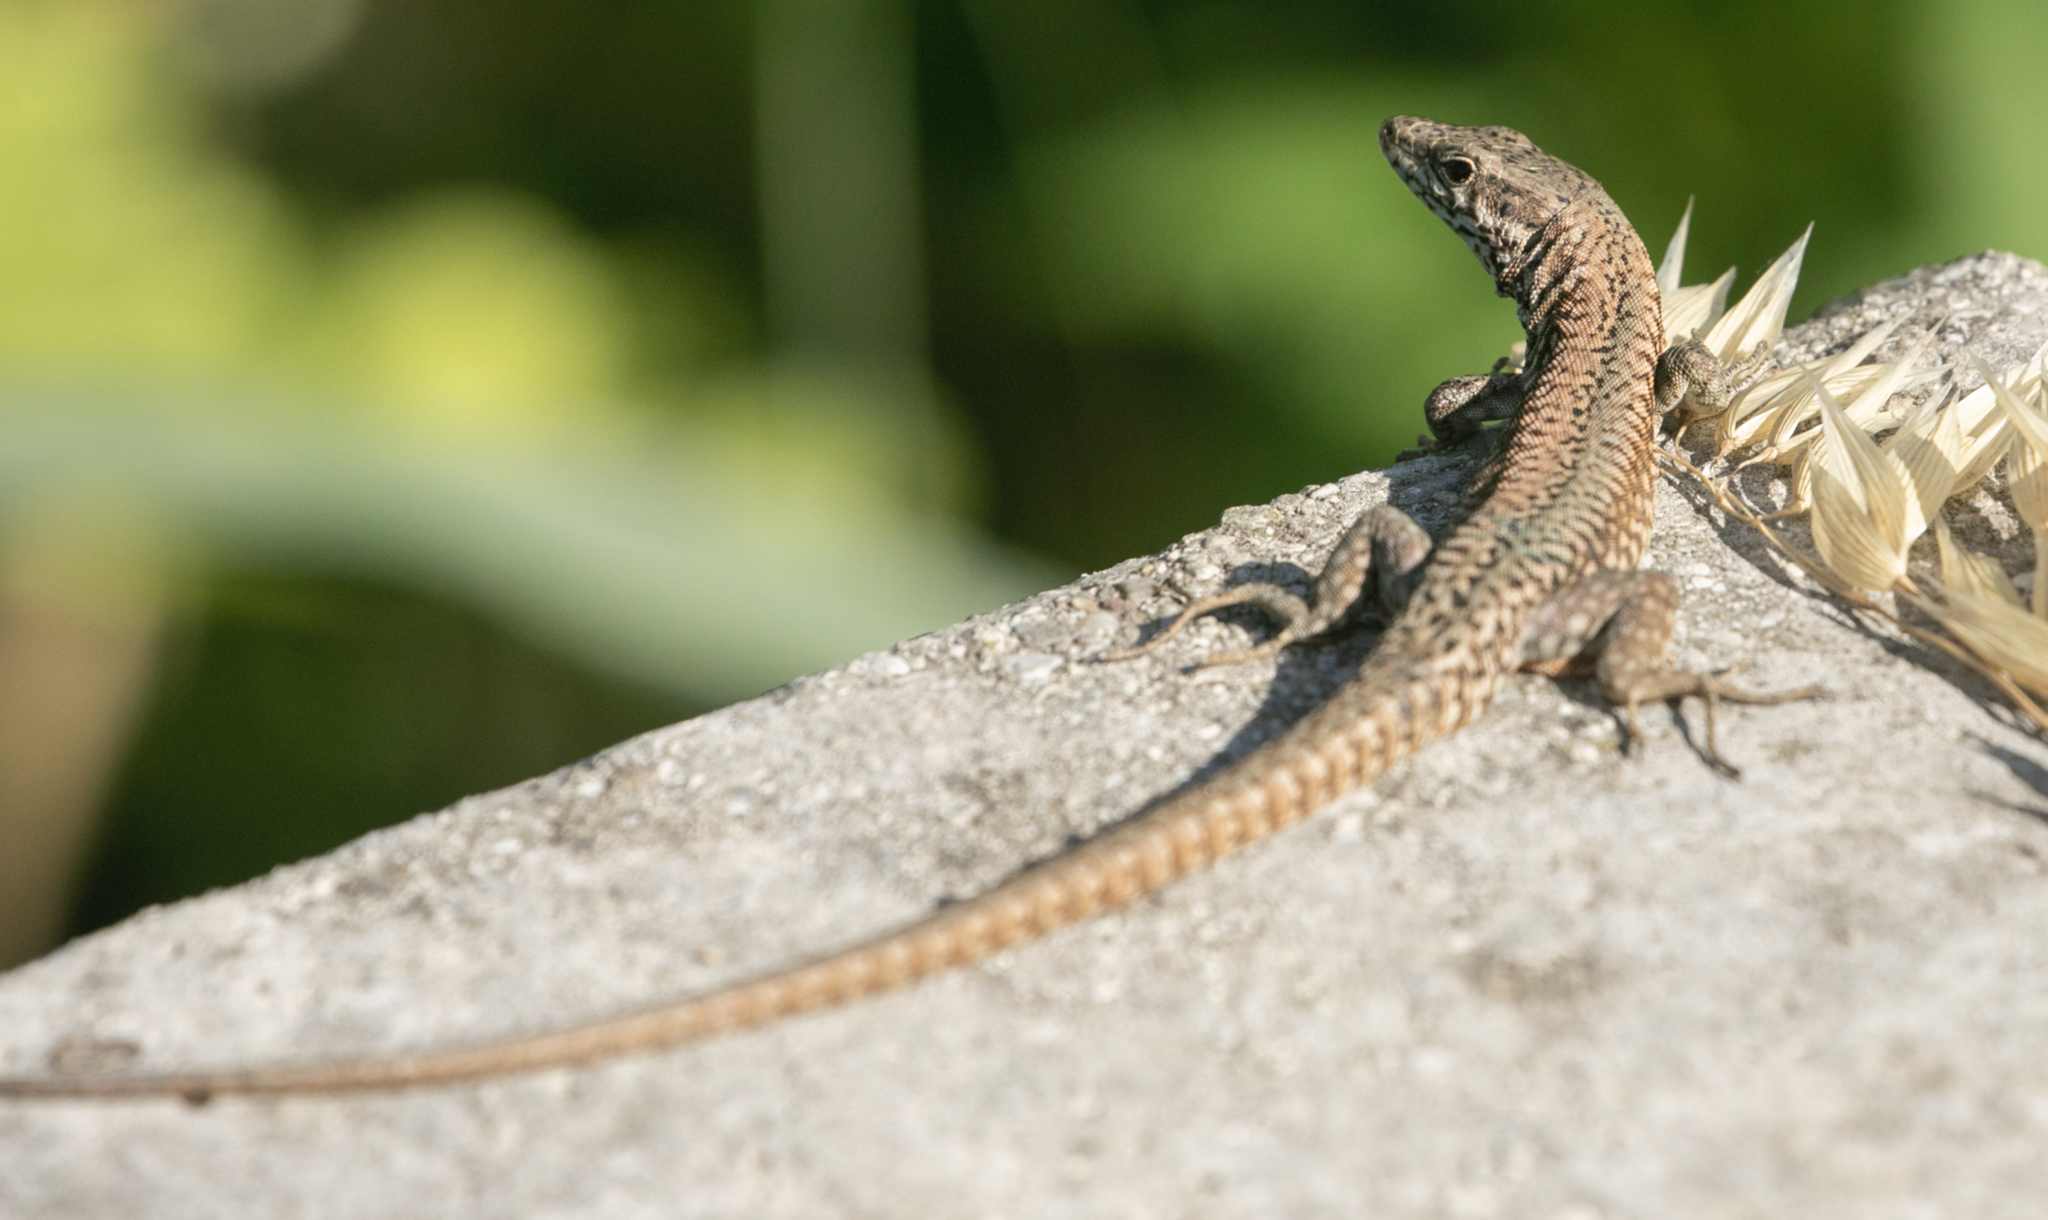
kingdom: Animalia
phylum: Chordata
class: Squamata
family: Lacertidae
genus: Podarcis
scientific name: Podarcis muralis
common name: Common wall lizard
